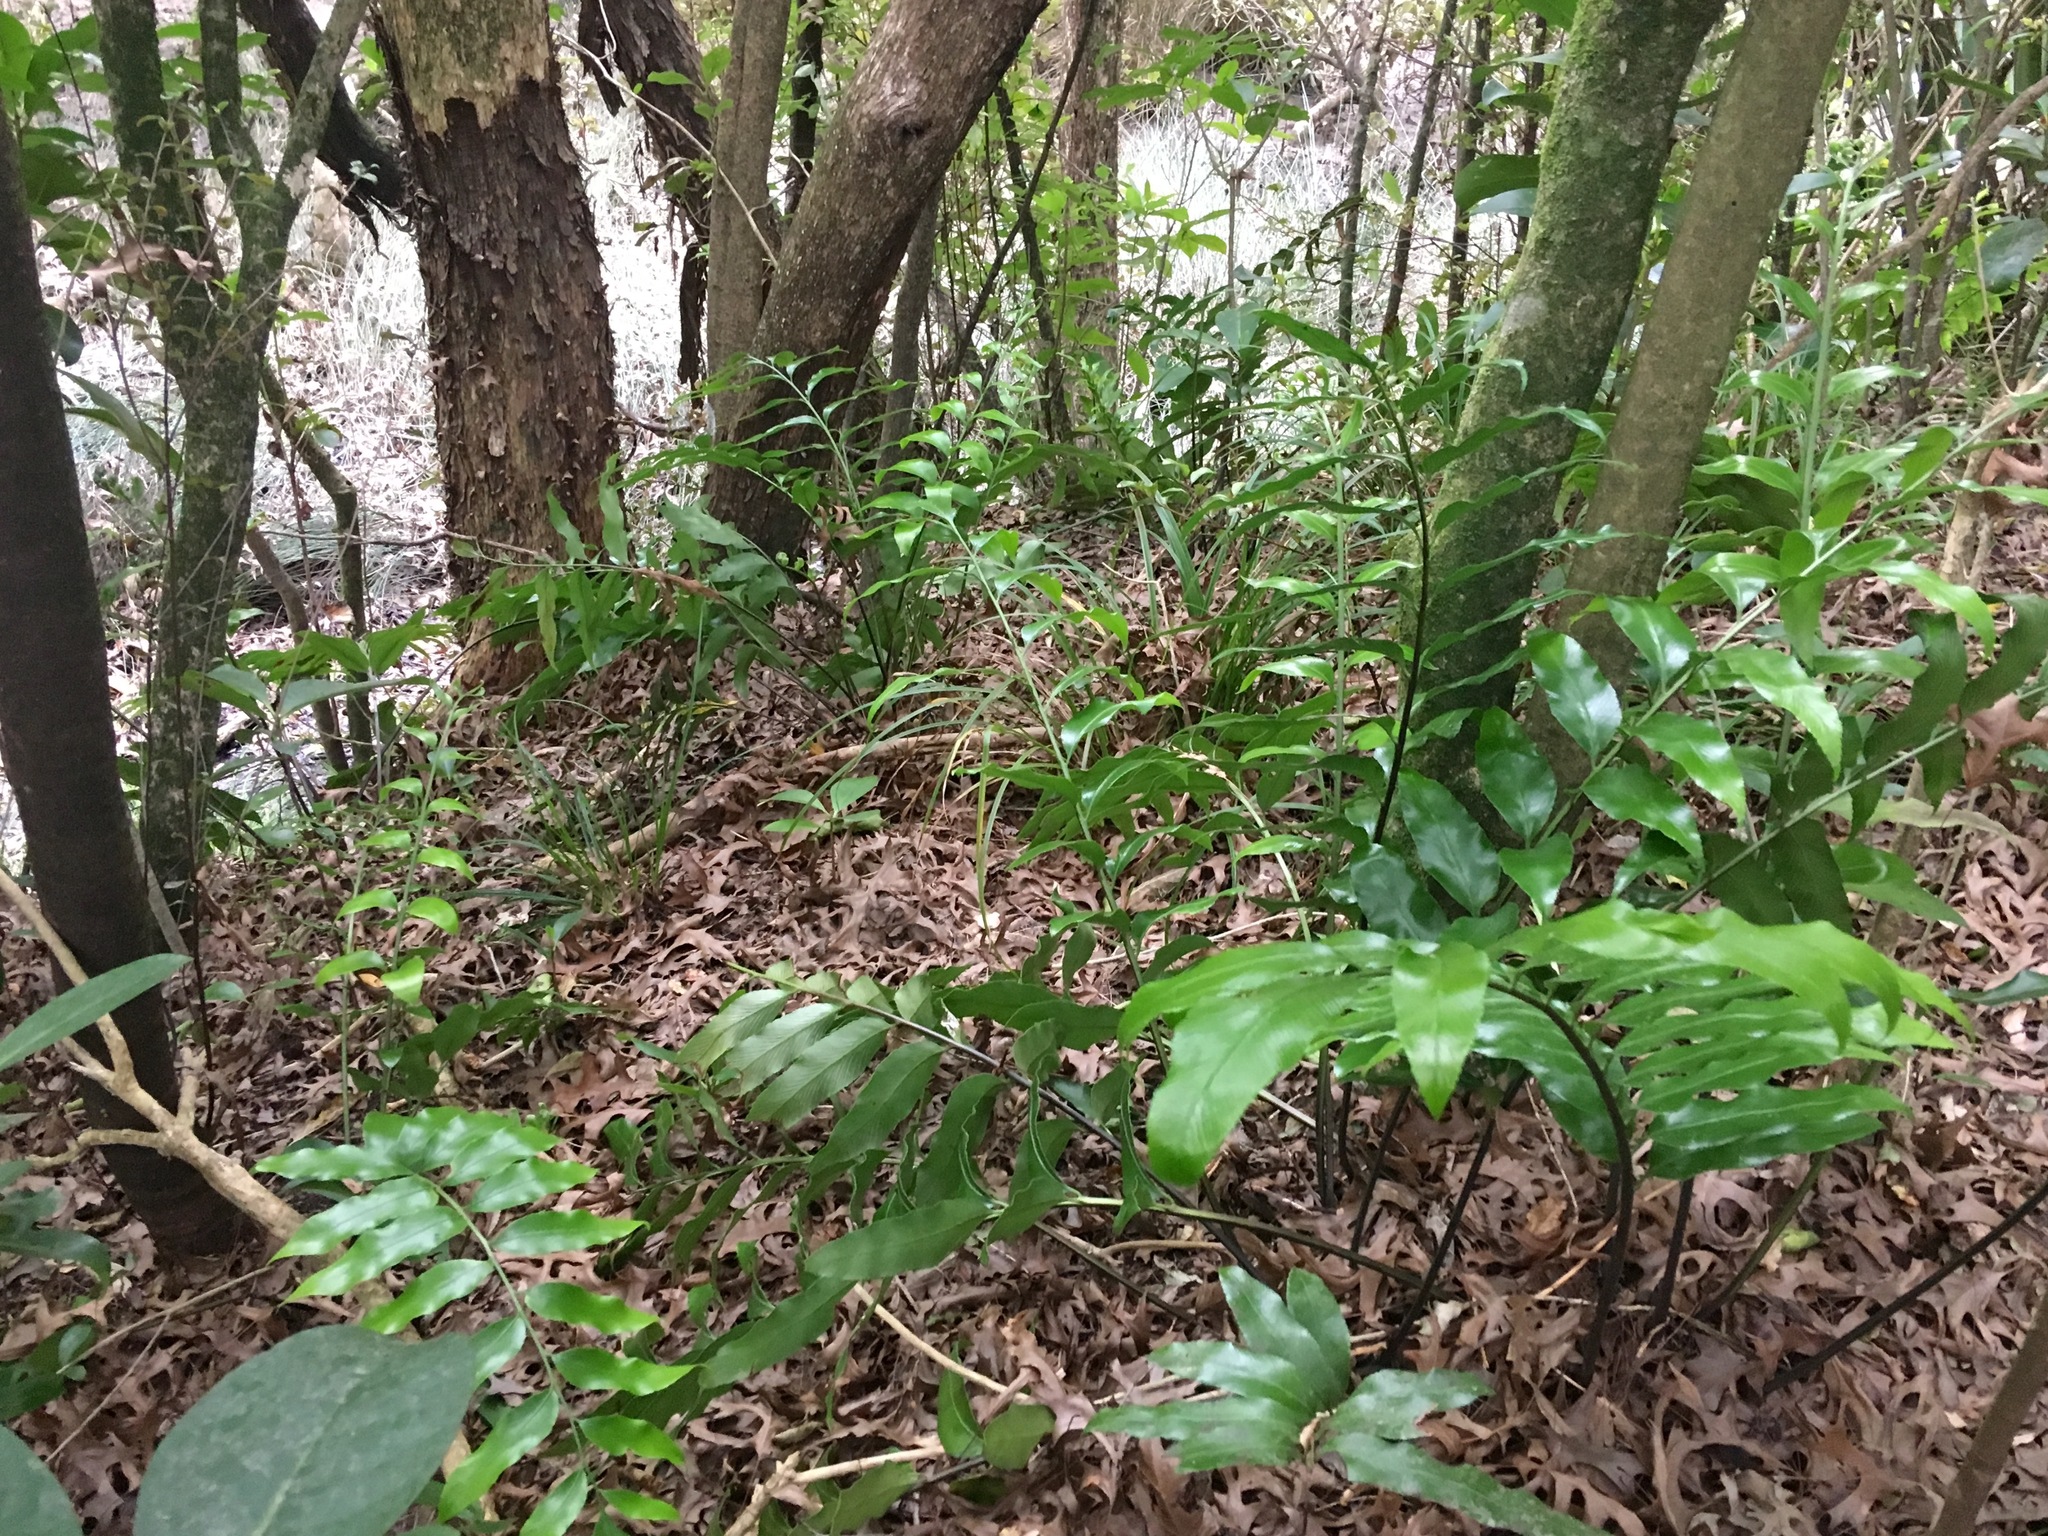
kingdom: Plantae
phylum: Tracheophyta
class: Polypodiopsida
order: Polypodiales
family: Aspleniaceae
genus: Asplenium
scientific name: Asplenium oblongifolium
